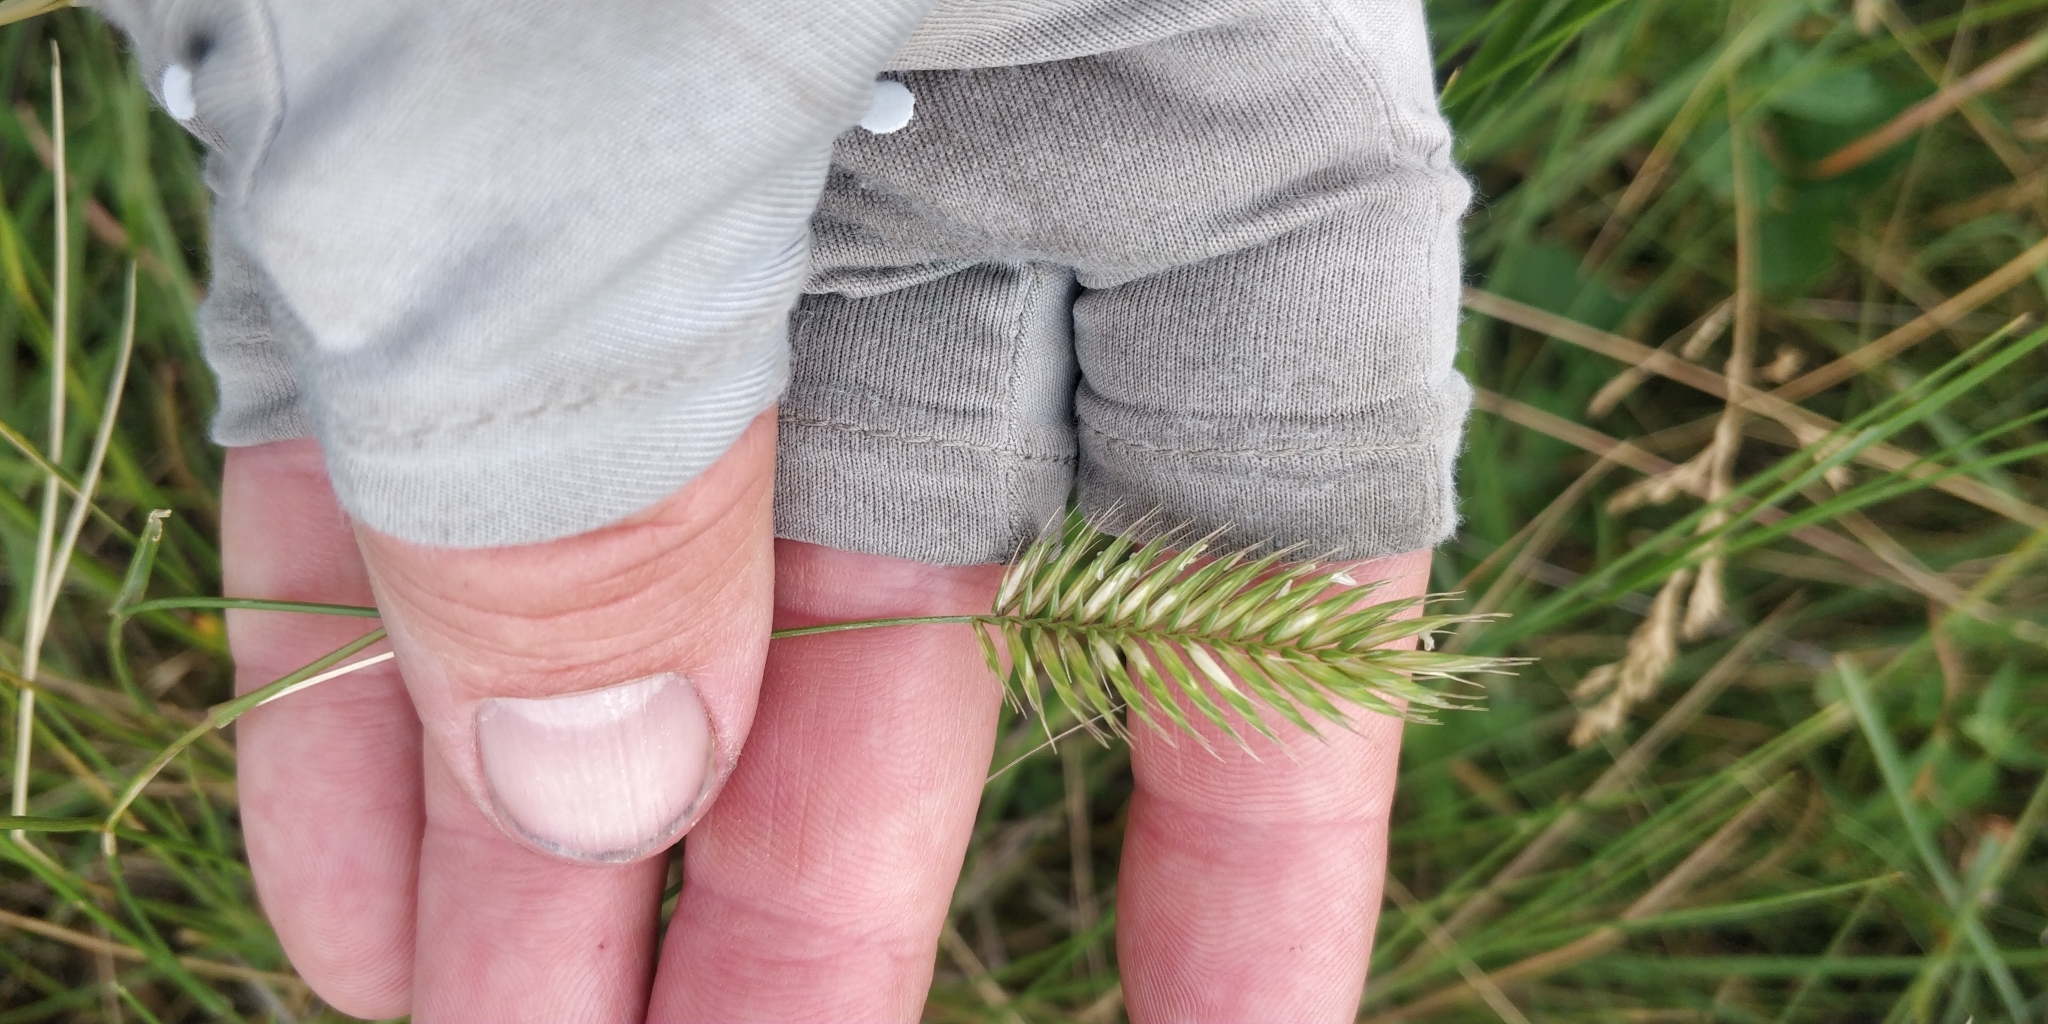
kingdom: Plantae
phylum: Tracheophyta
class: Liliopsida
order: Poales
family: Poaceae
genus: Agropyron
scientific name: Agropyron cristatum
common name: Crested wheatgrass
